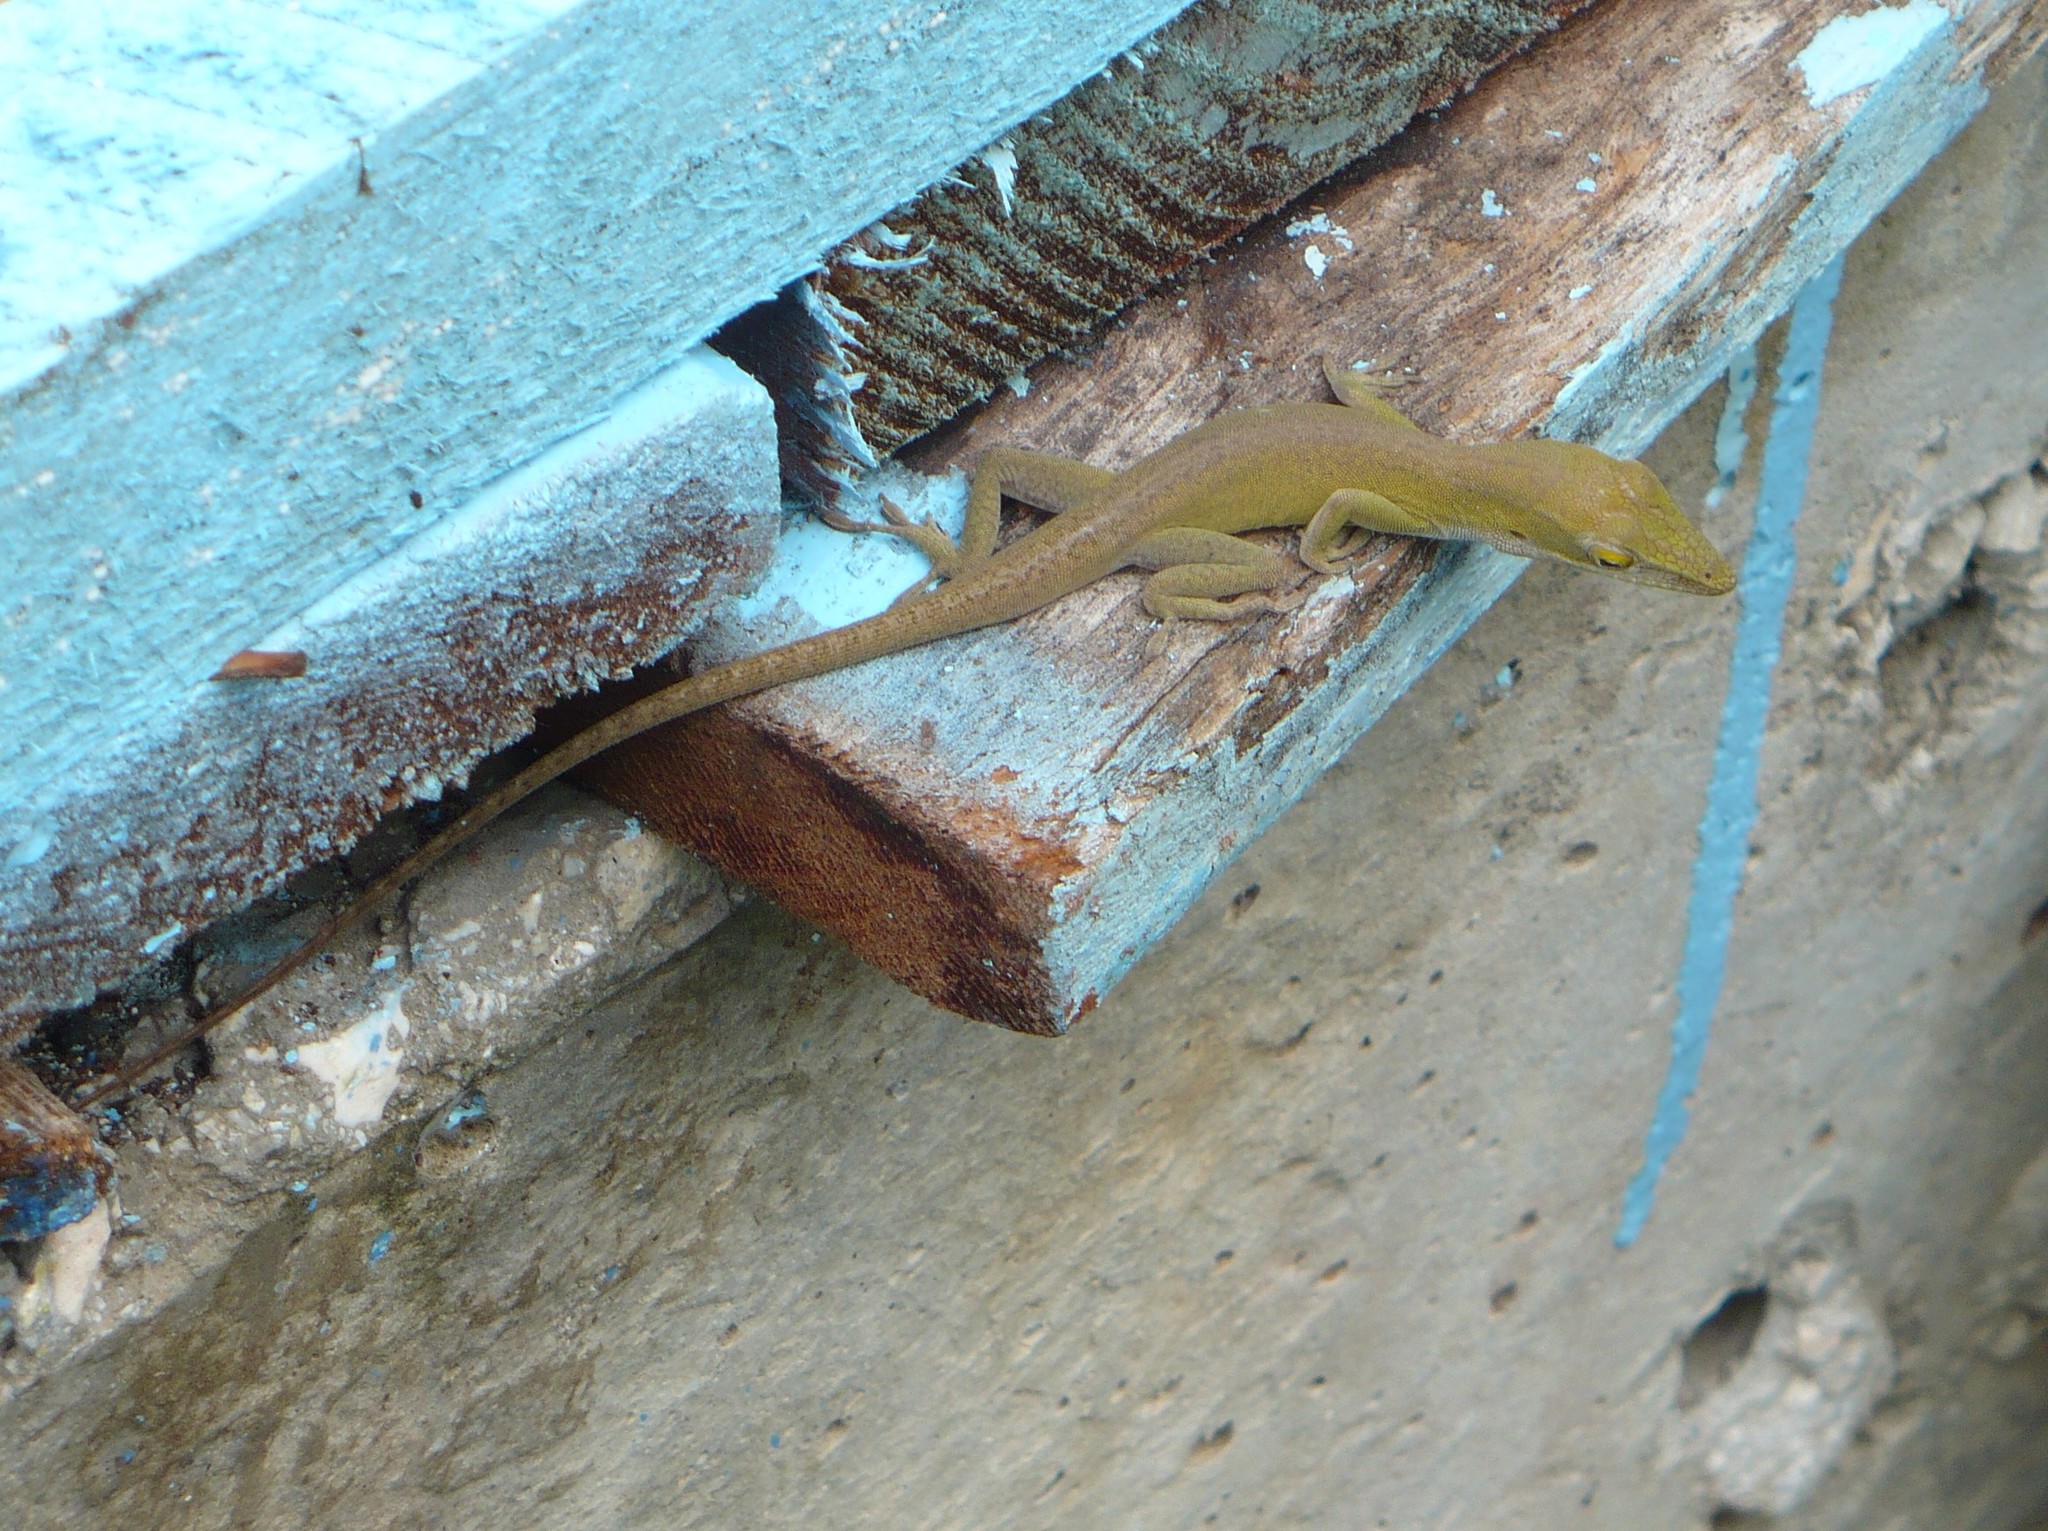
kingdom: Animalia
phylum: Chordata
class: Squamata
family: Dactyloidae
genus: Anolis
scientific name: Anolis porcatus
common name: Cuban green anole
